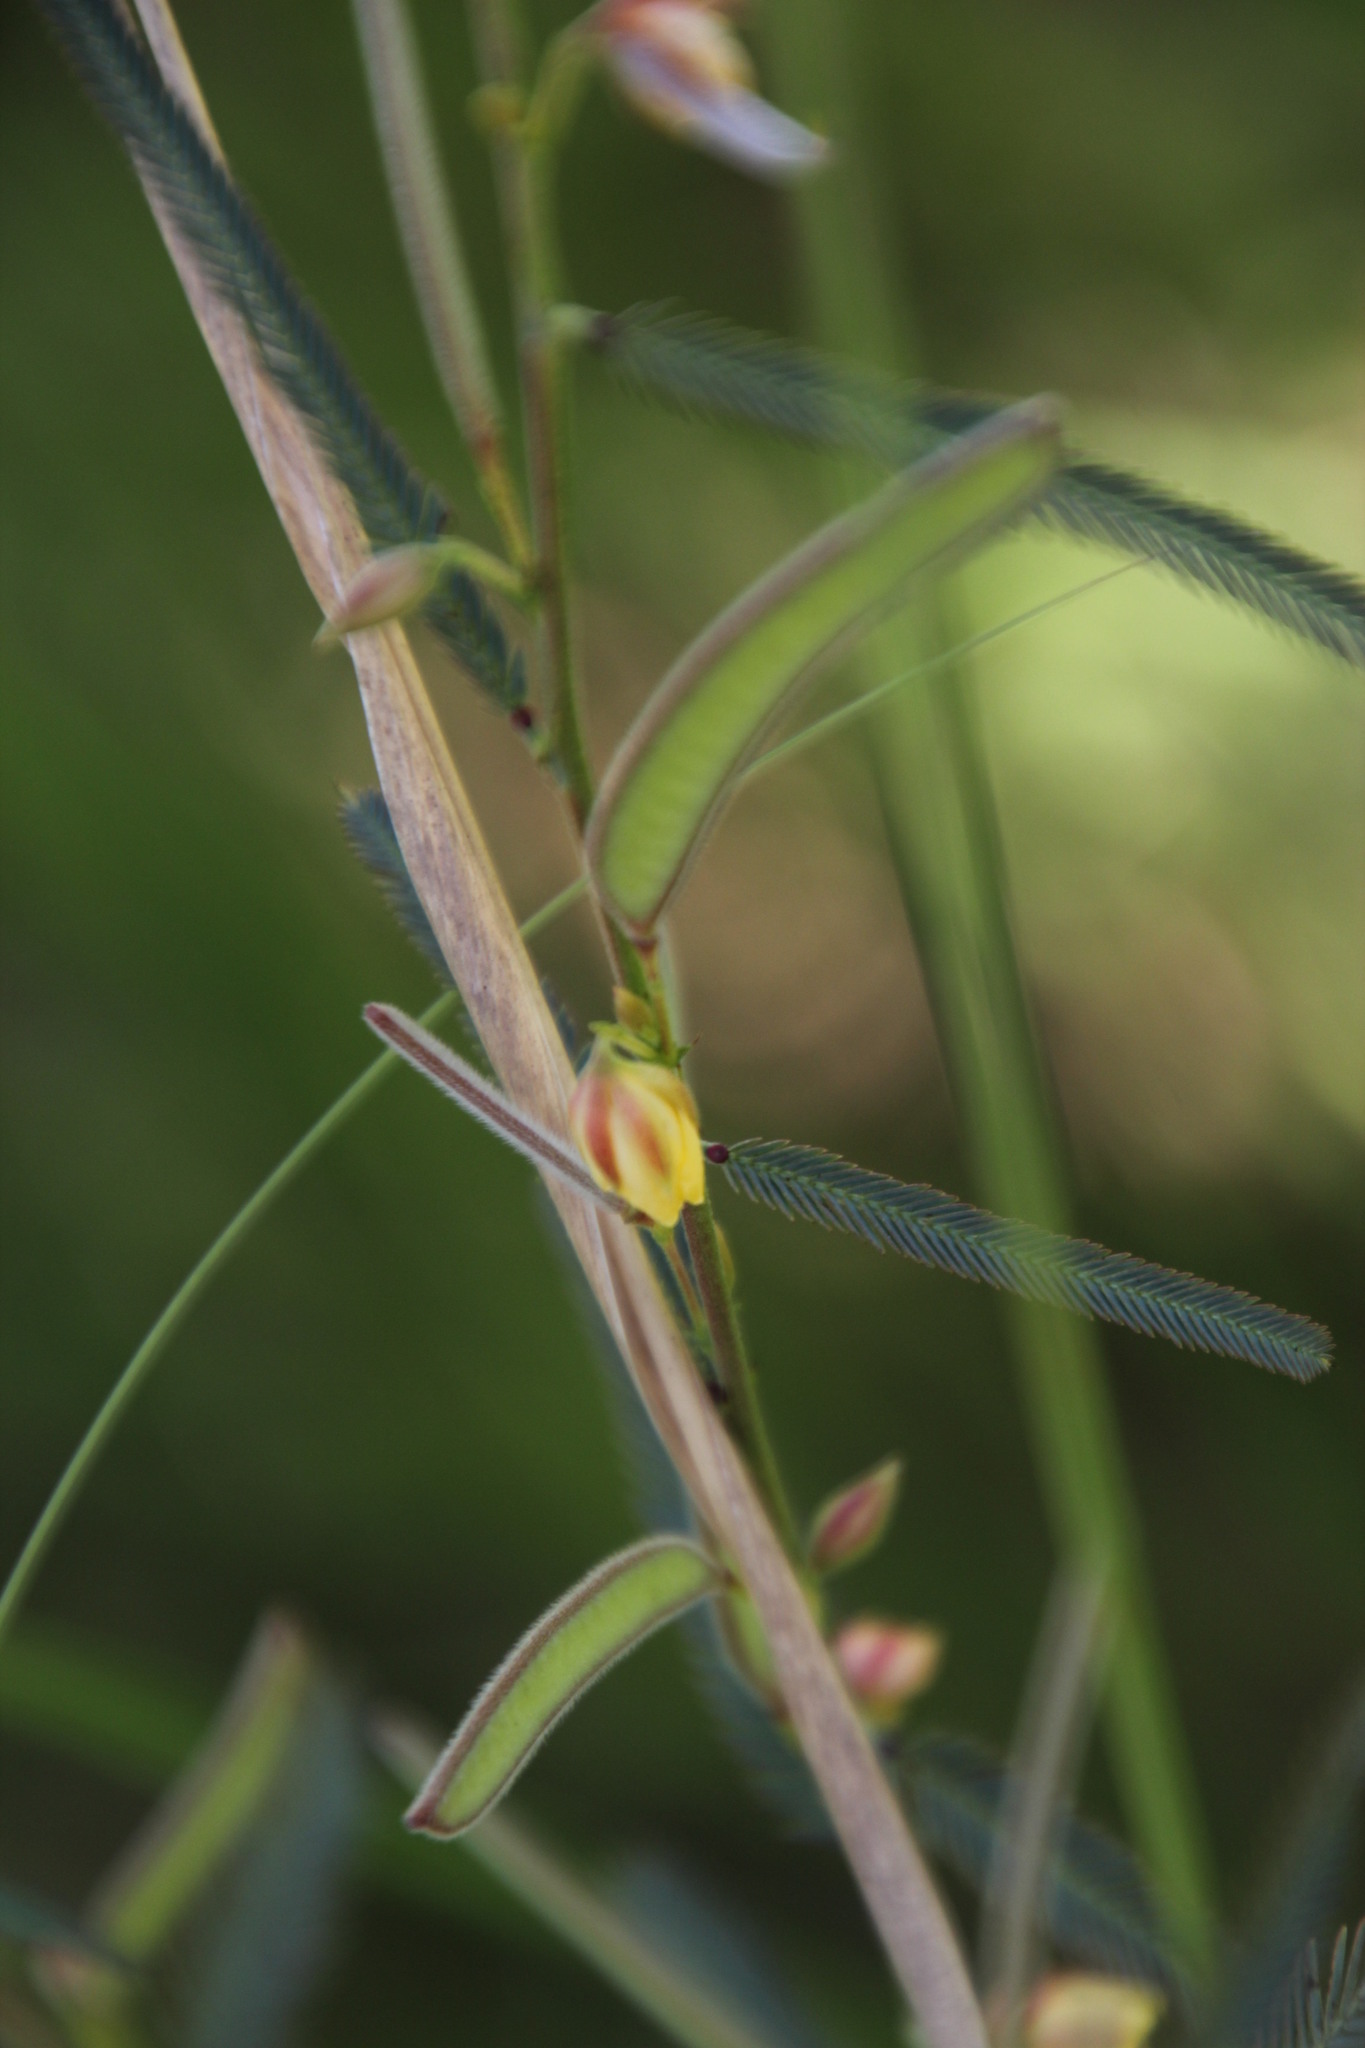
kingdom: Plantae
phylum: Tracheophyta
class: Magnoliopsida
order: Fabales
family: Fabaceae
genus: Chamaecrista
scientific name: Chamaecrista mimosoides
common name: Fish-bone cassia
